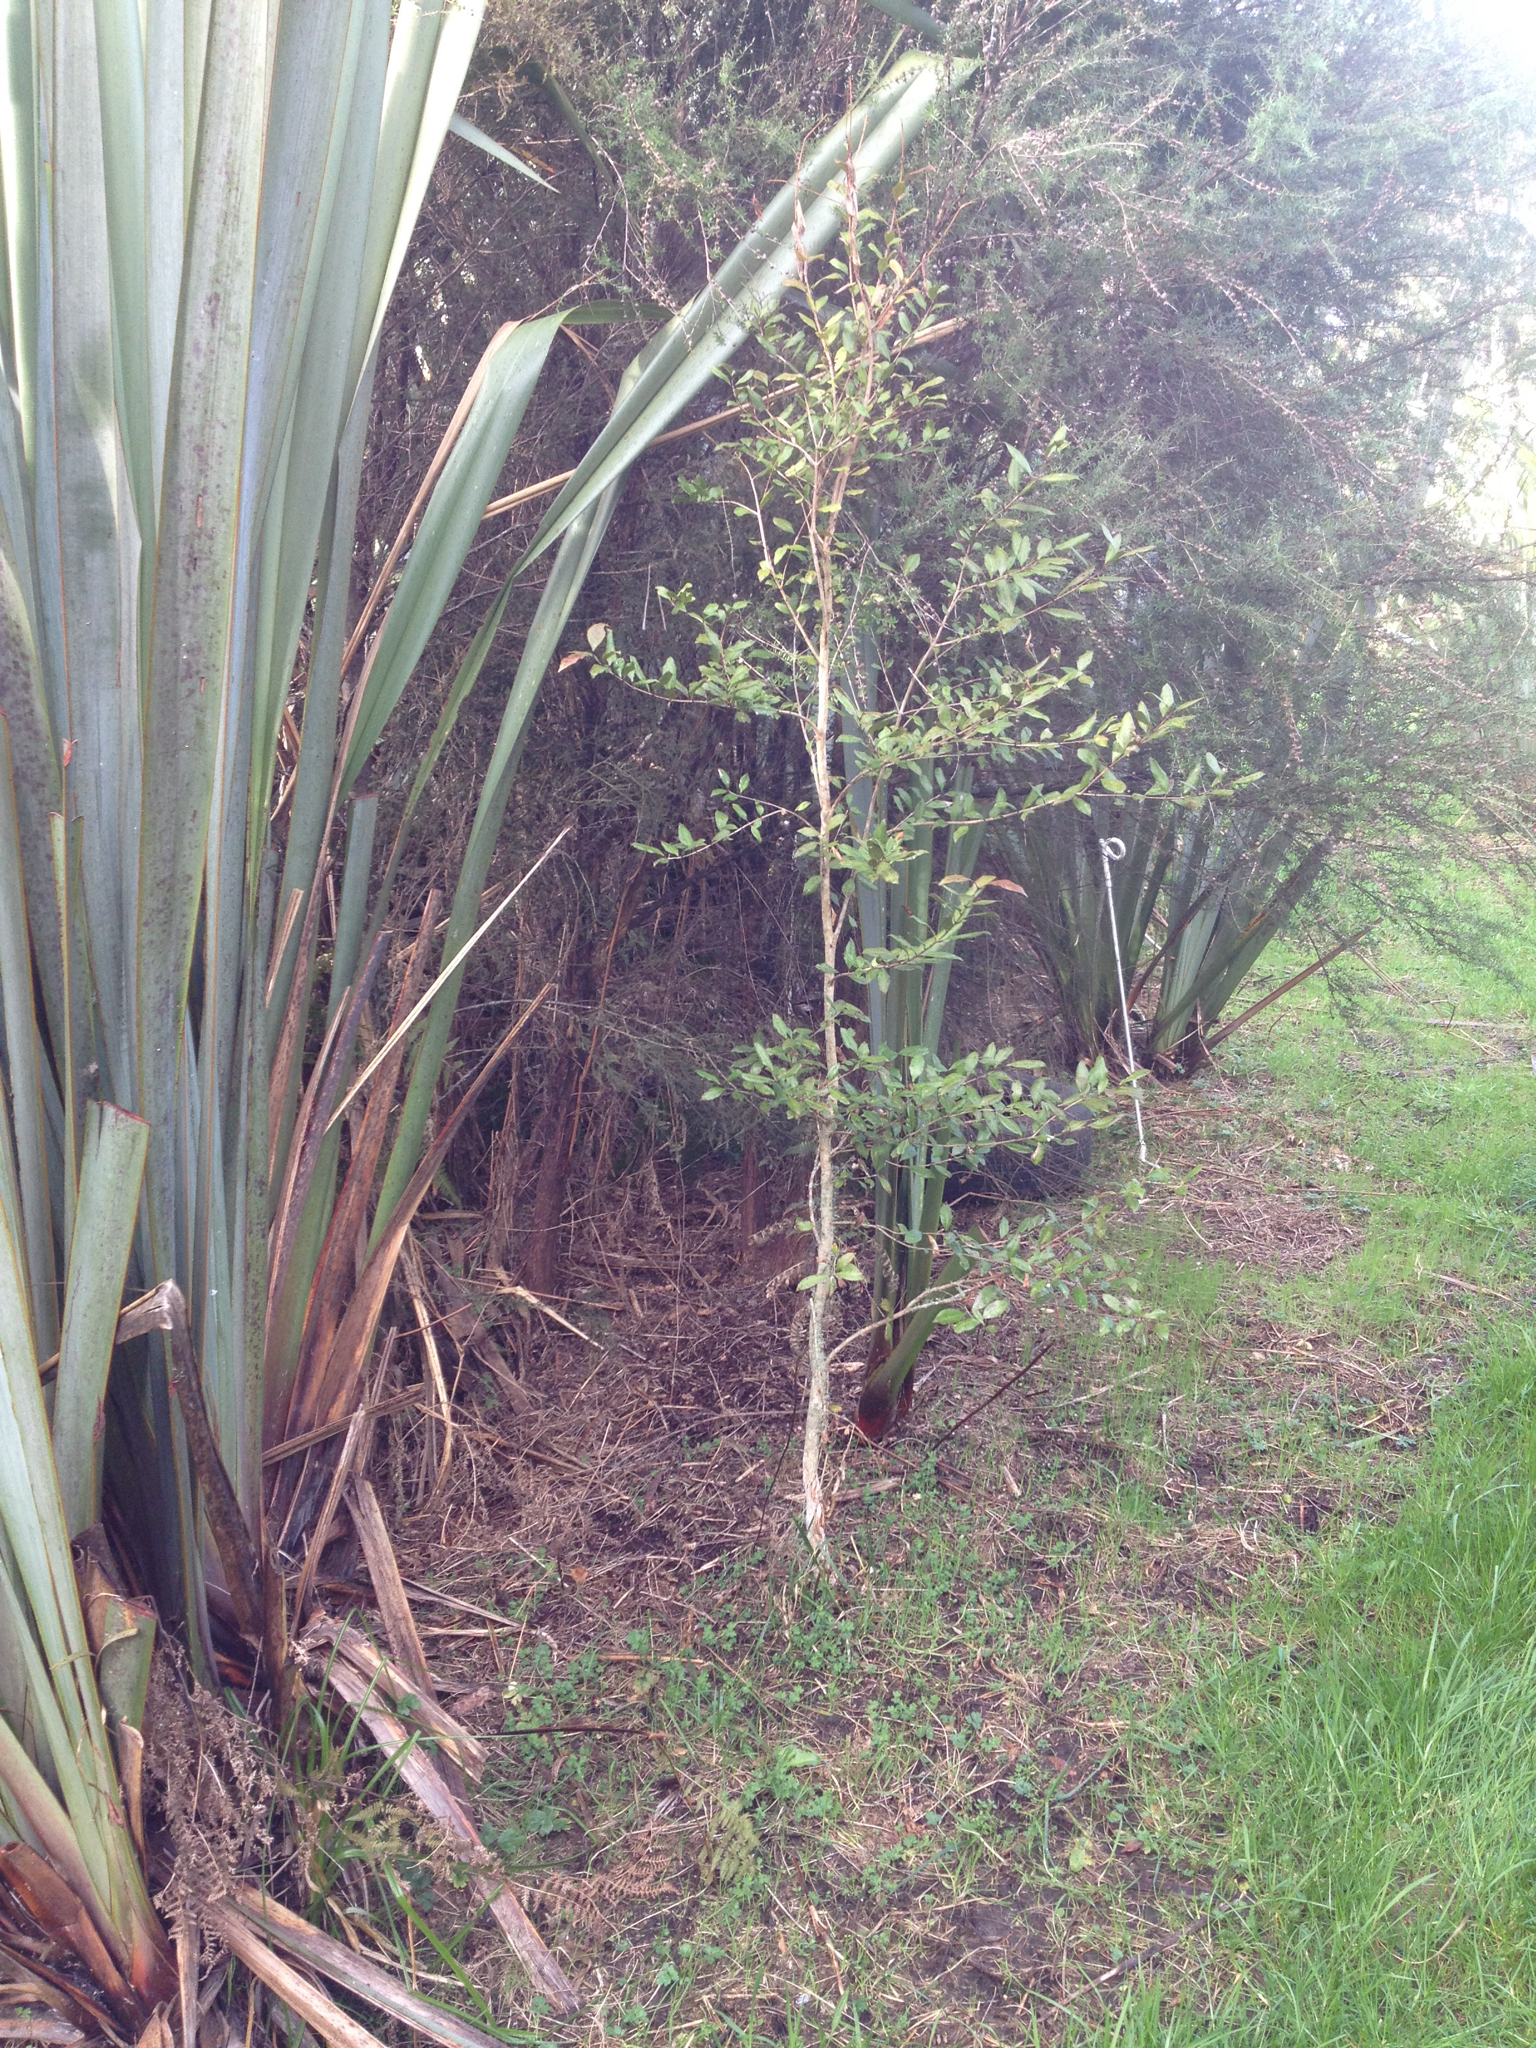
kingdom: Plantae
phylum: Tracheophyta
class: Magnoliopsida
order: Myrtales
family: Myrtaceae
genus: Syzygium
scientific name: Syzygium maire
